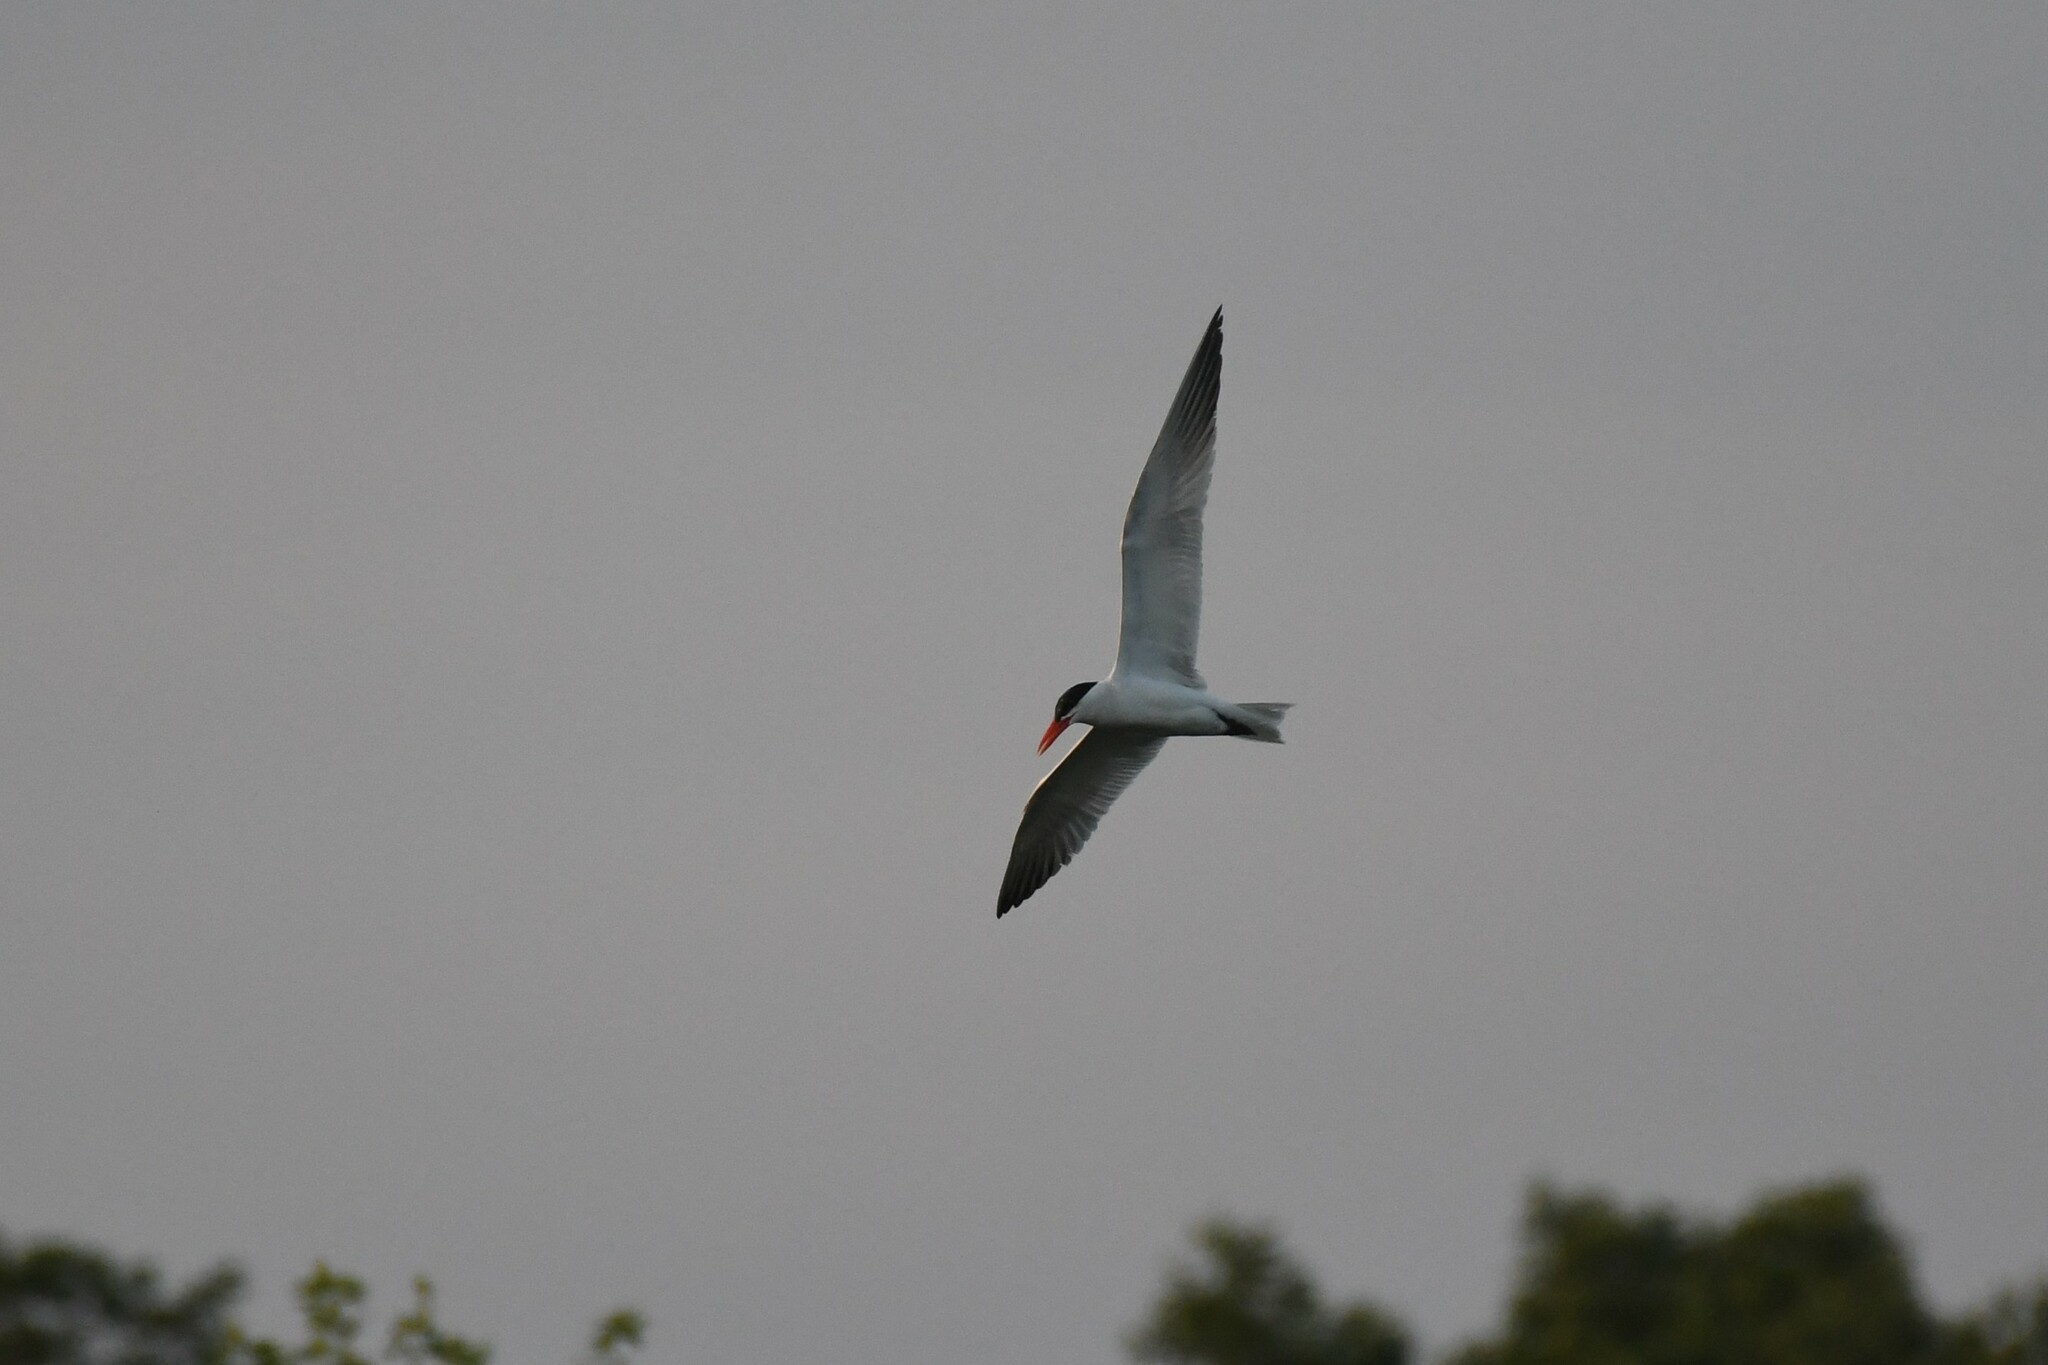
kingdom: Animalia
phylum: Chordata
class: Aves
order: Charadriiformes
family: Laridae
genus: Hydroprogne
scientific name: Hydroprogne caspia
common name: Caspian tern
